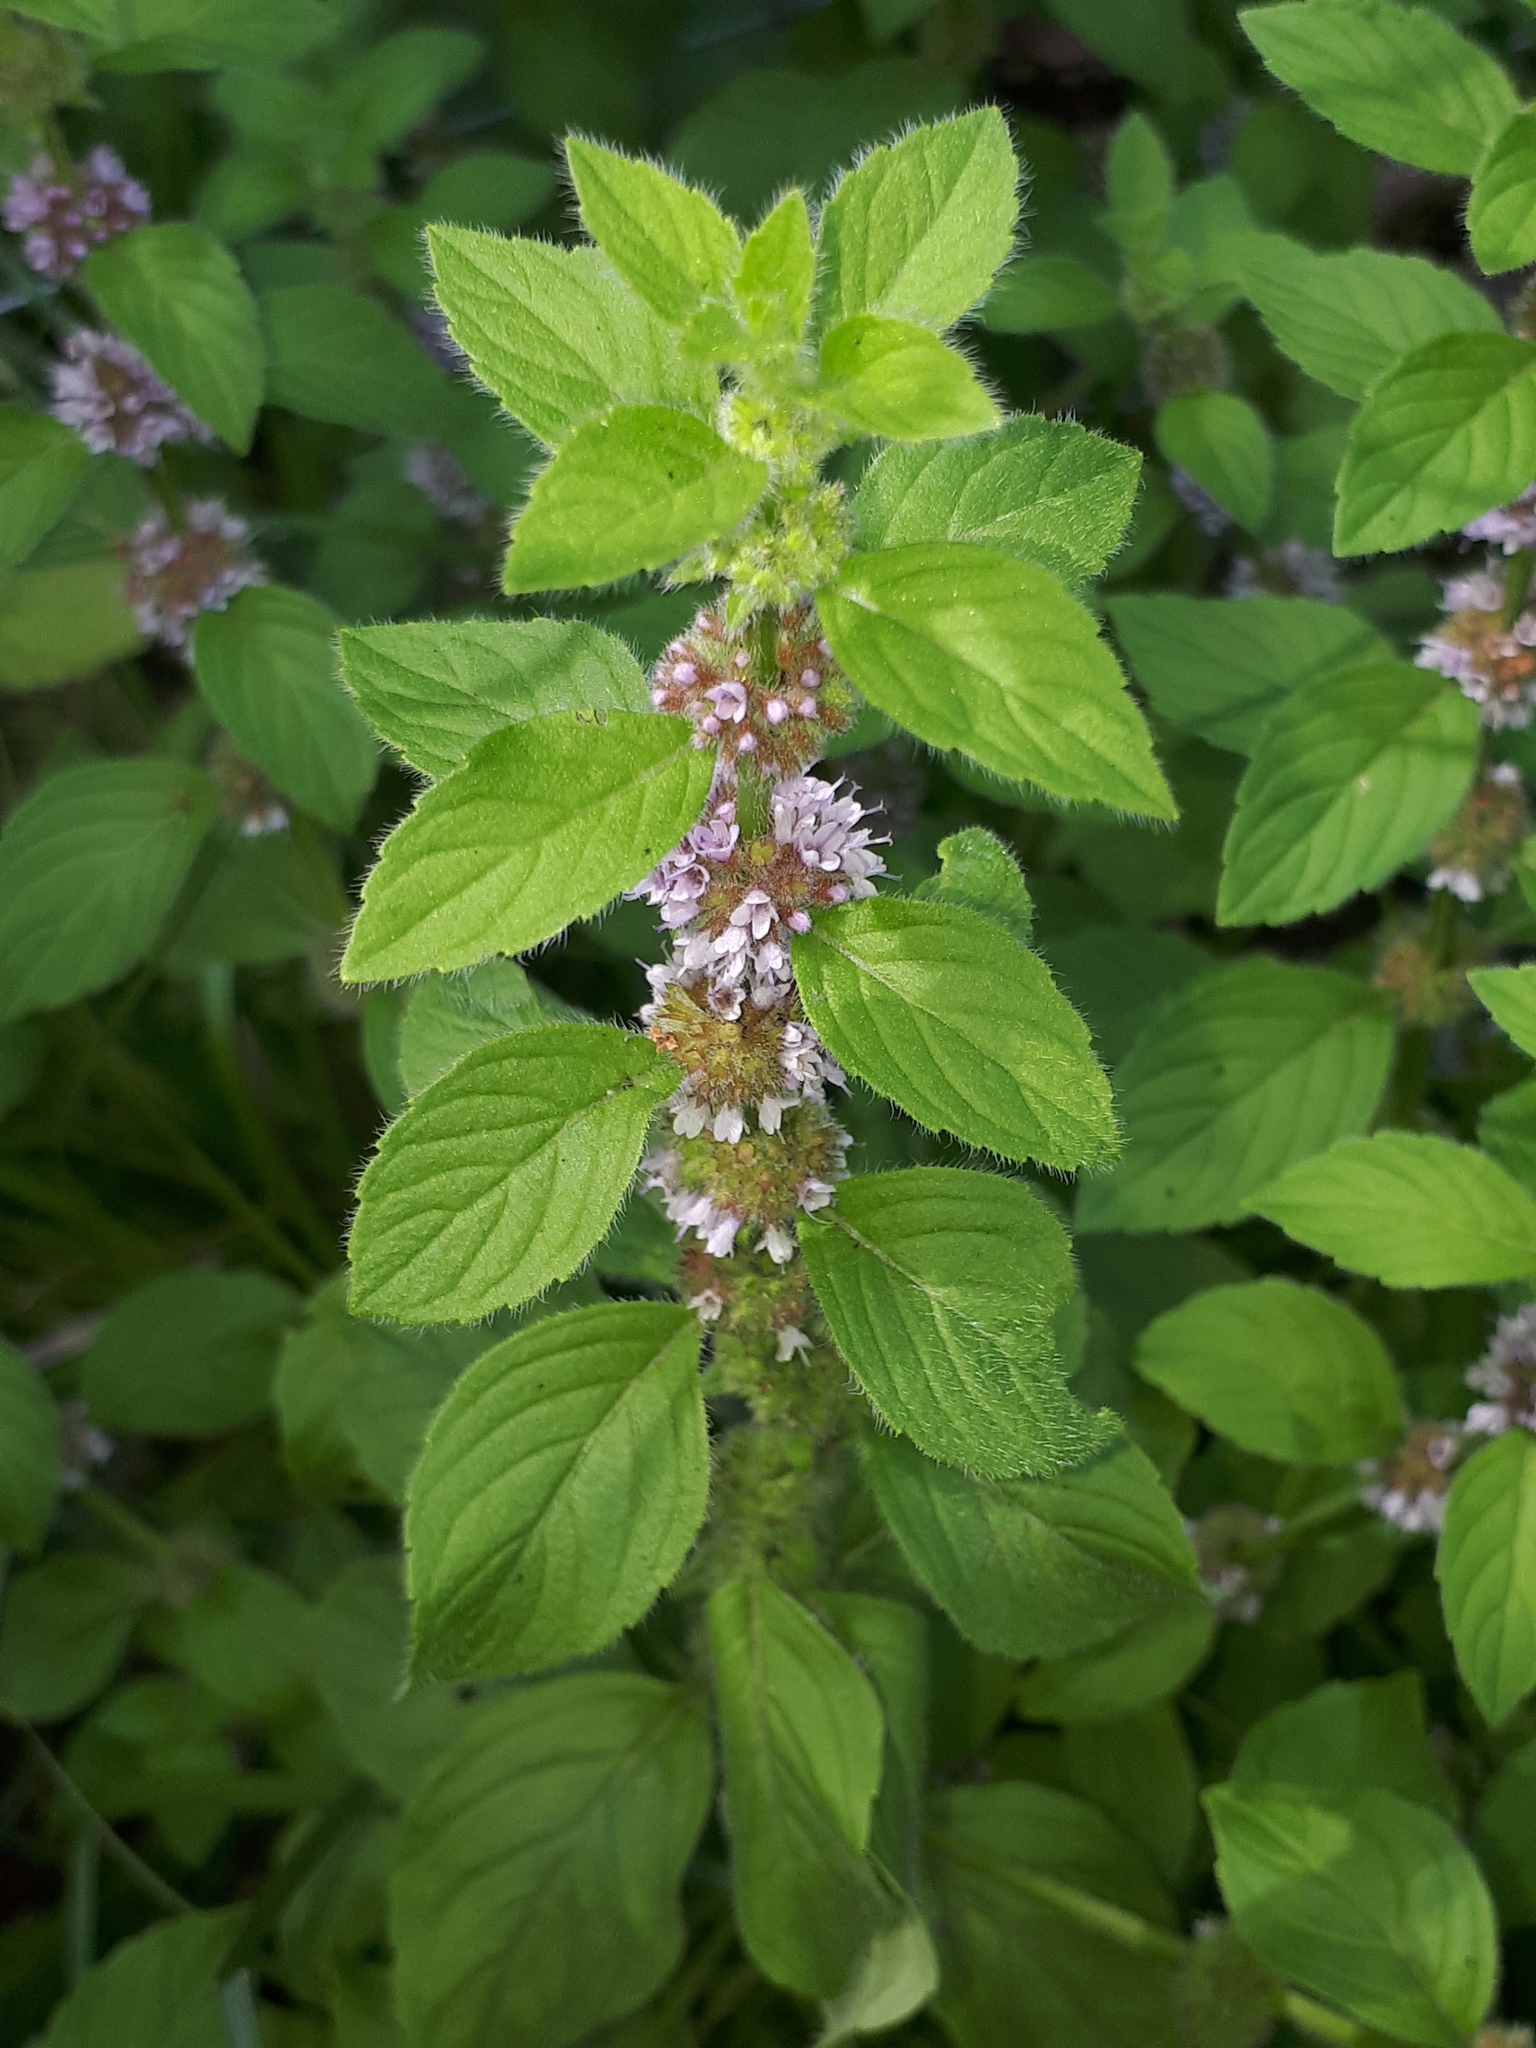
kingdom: Plantae
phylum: Tracheophyta
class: Magnoliopsida
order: Lamiales
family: Lamiaceae
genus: Mentha
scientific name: Mentha arvensis
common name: Corn mint
